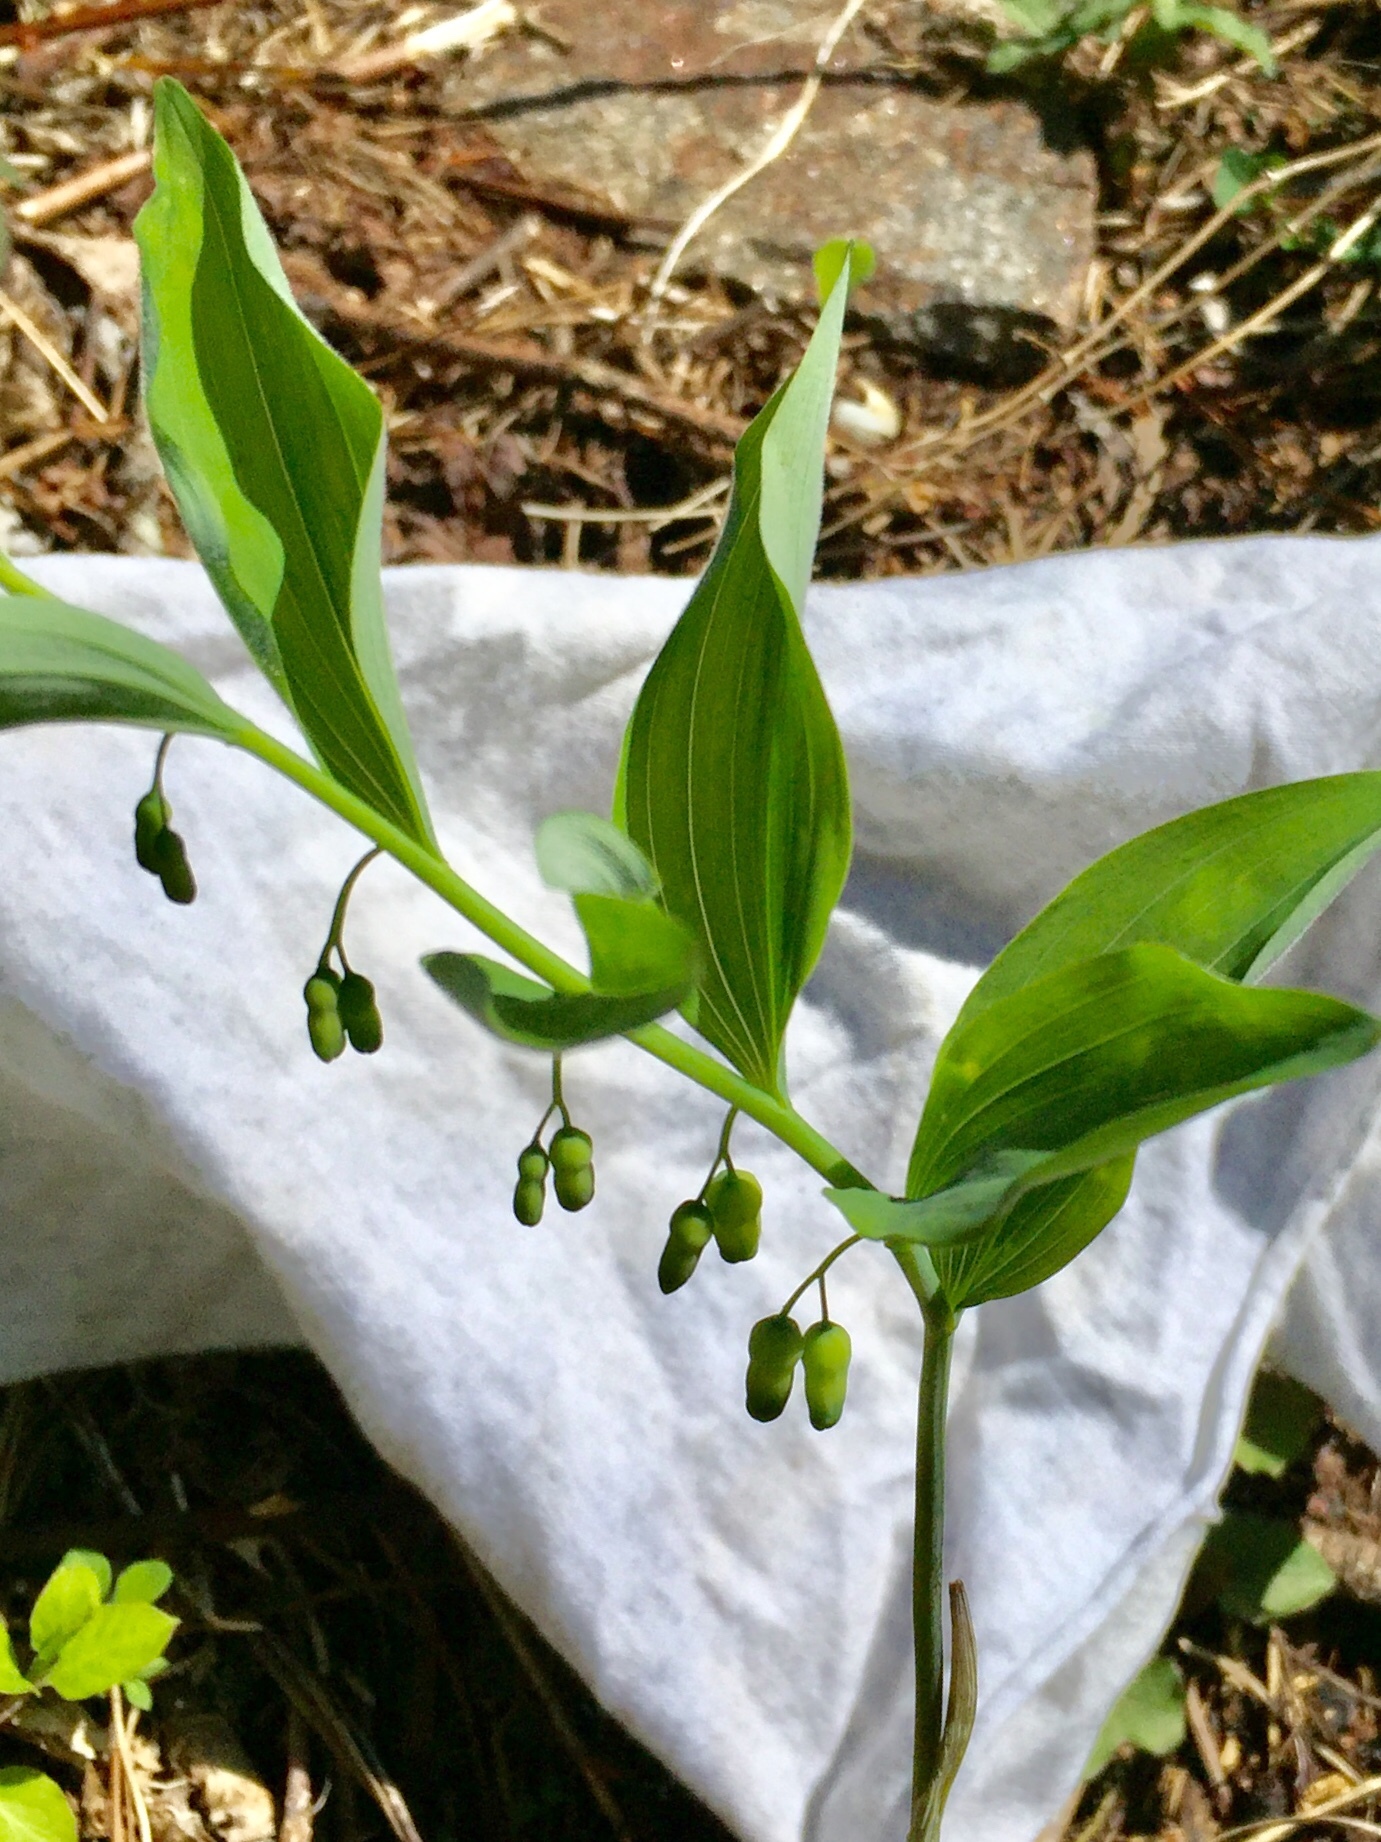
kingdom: Plantae
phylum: Tracheophyta
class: Liliopsida
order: Asparagales
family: Asparagaceae
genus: Polygonatum
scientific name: Polygonatum pubescens
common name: Downy solomon's seal
